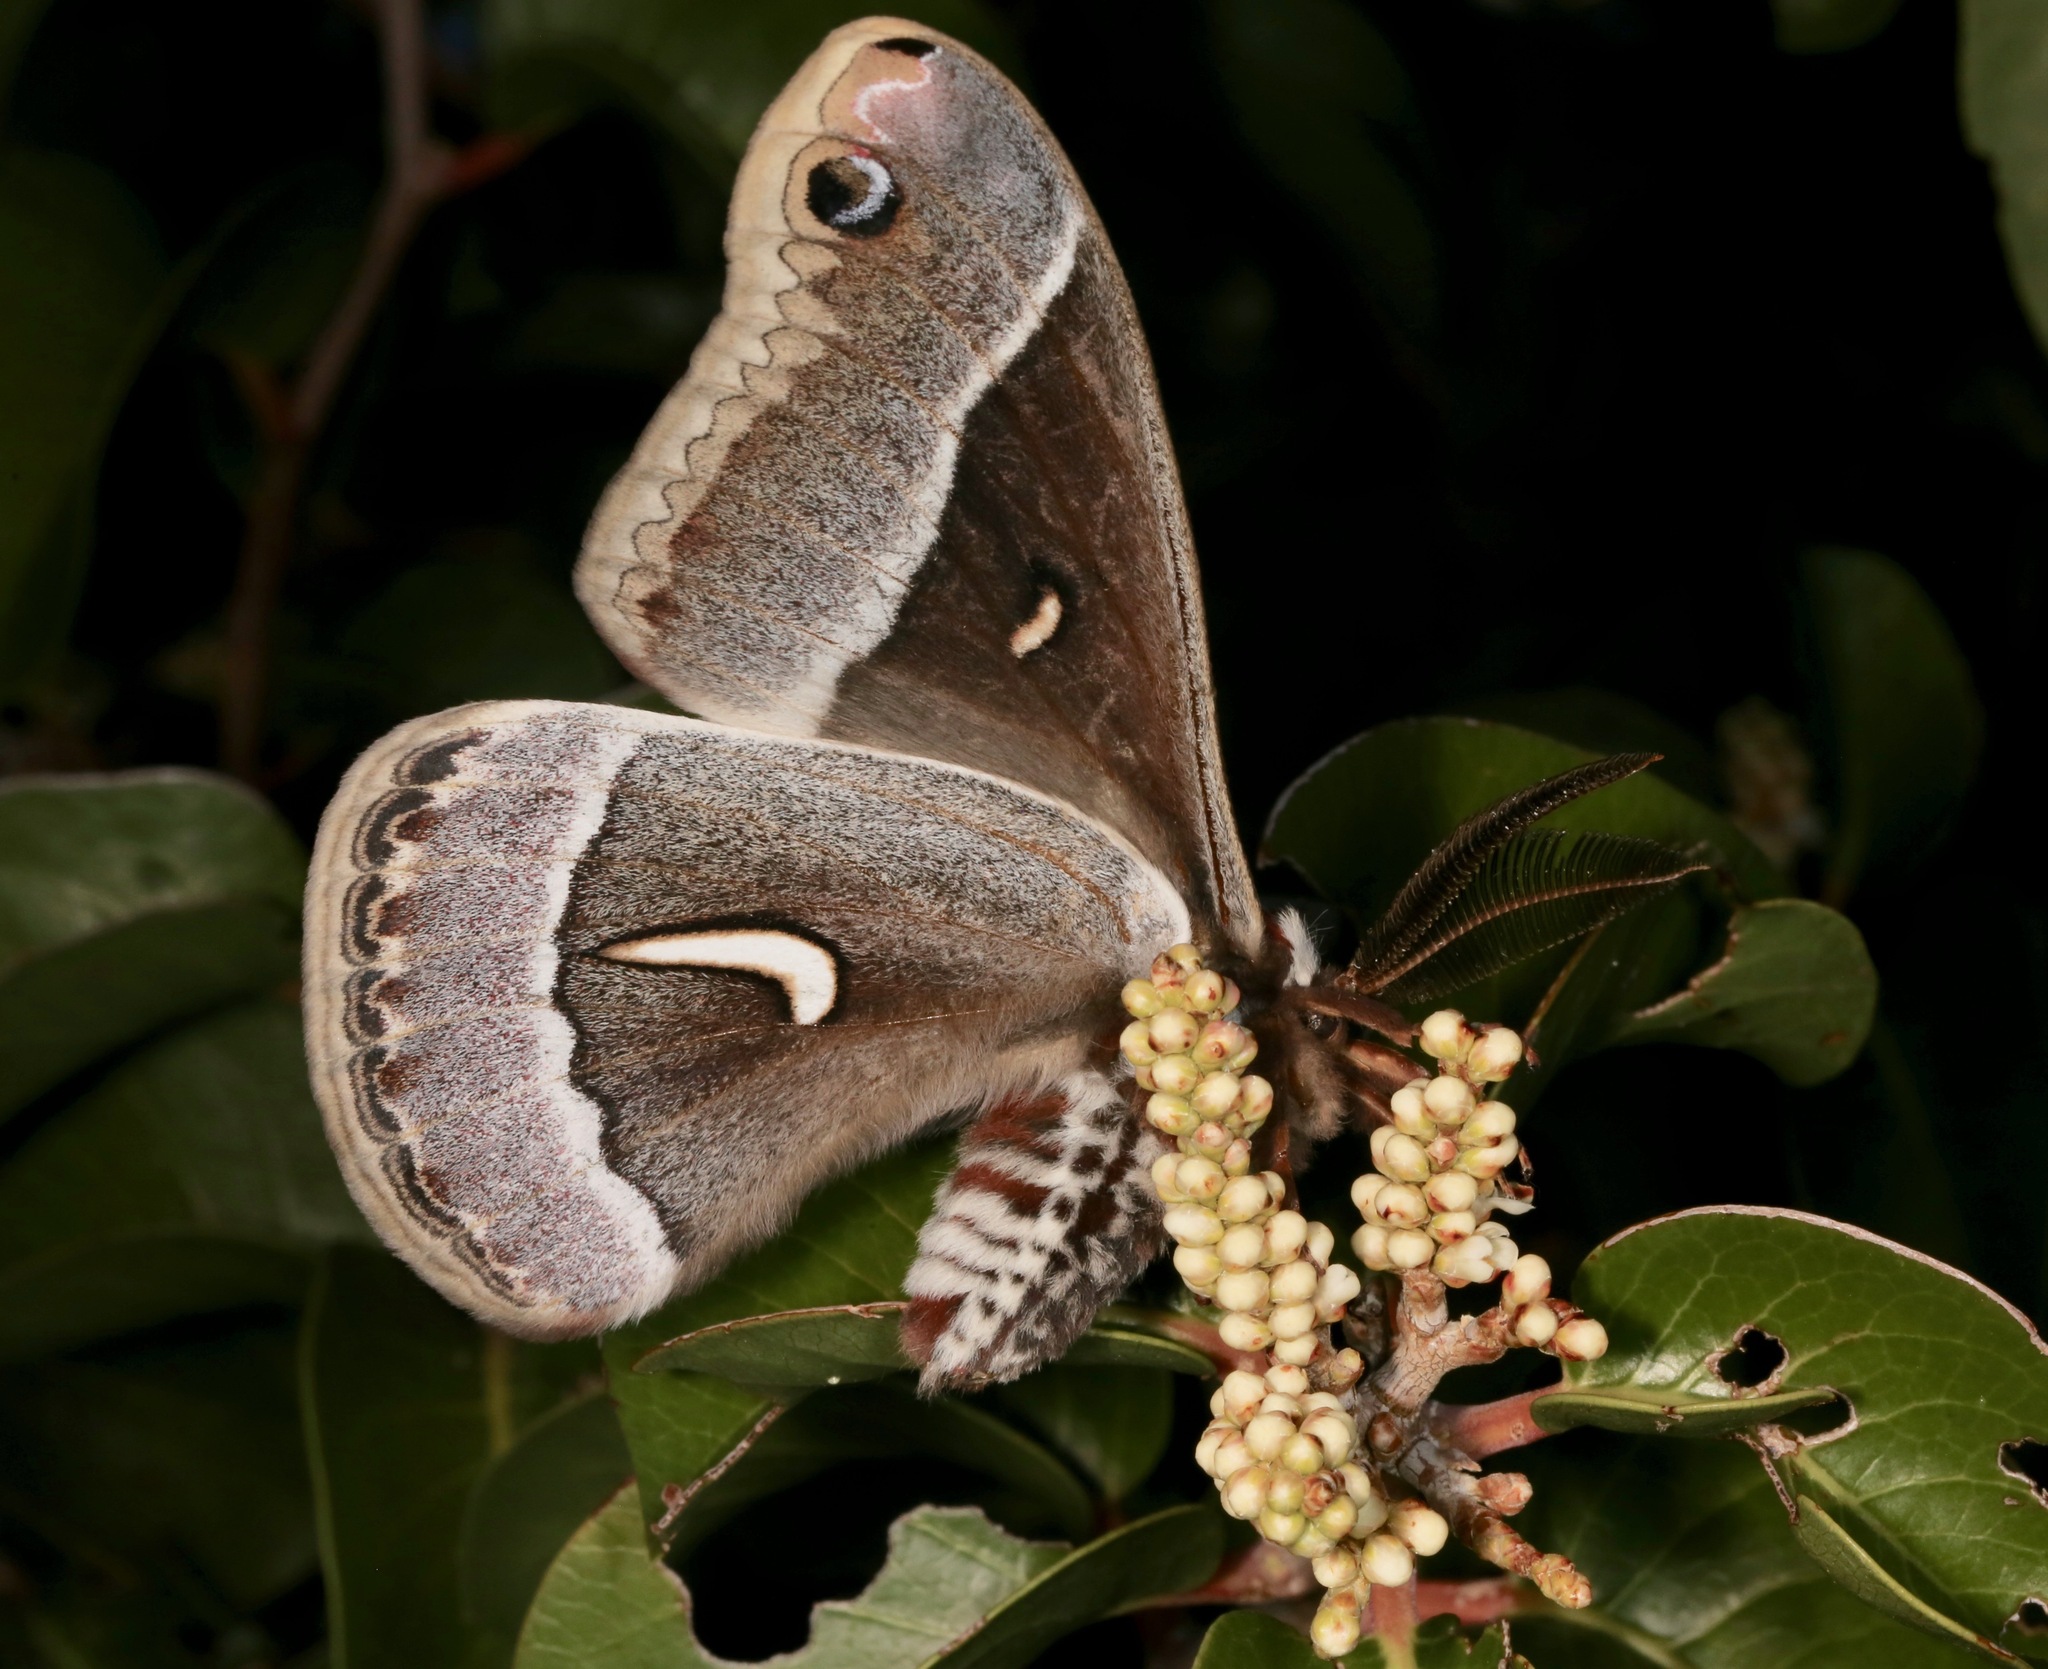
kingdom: Animalia
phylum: Arthropoda
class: Insecta
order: Lepidoptera
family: Saturniidae
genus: Hyalophora
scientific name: Hyalophora euryalus
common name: Ceanothus silkmoth
